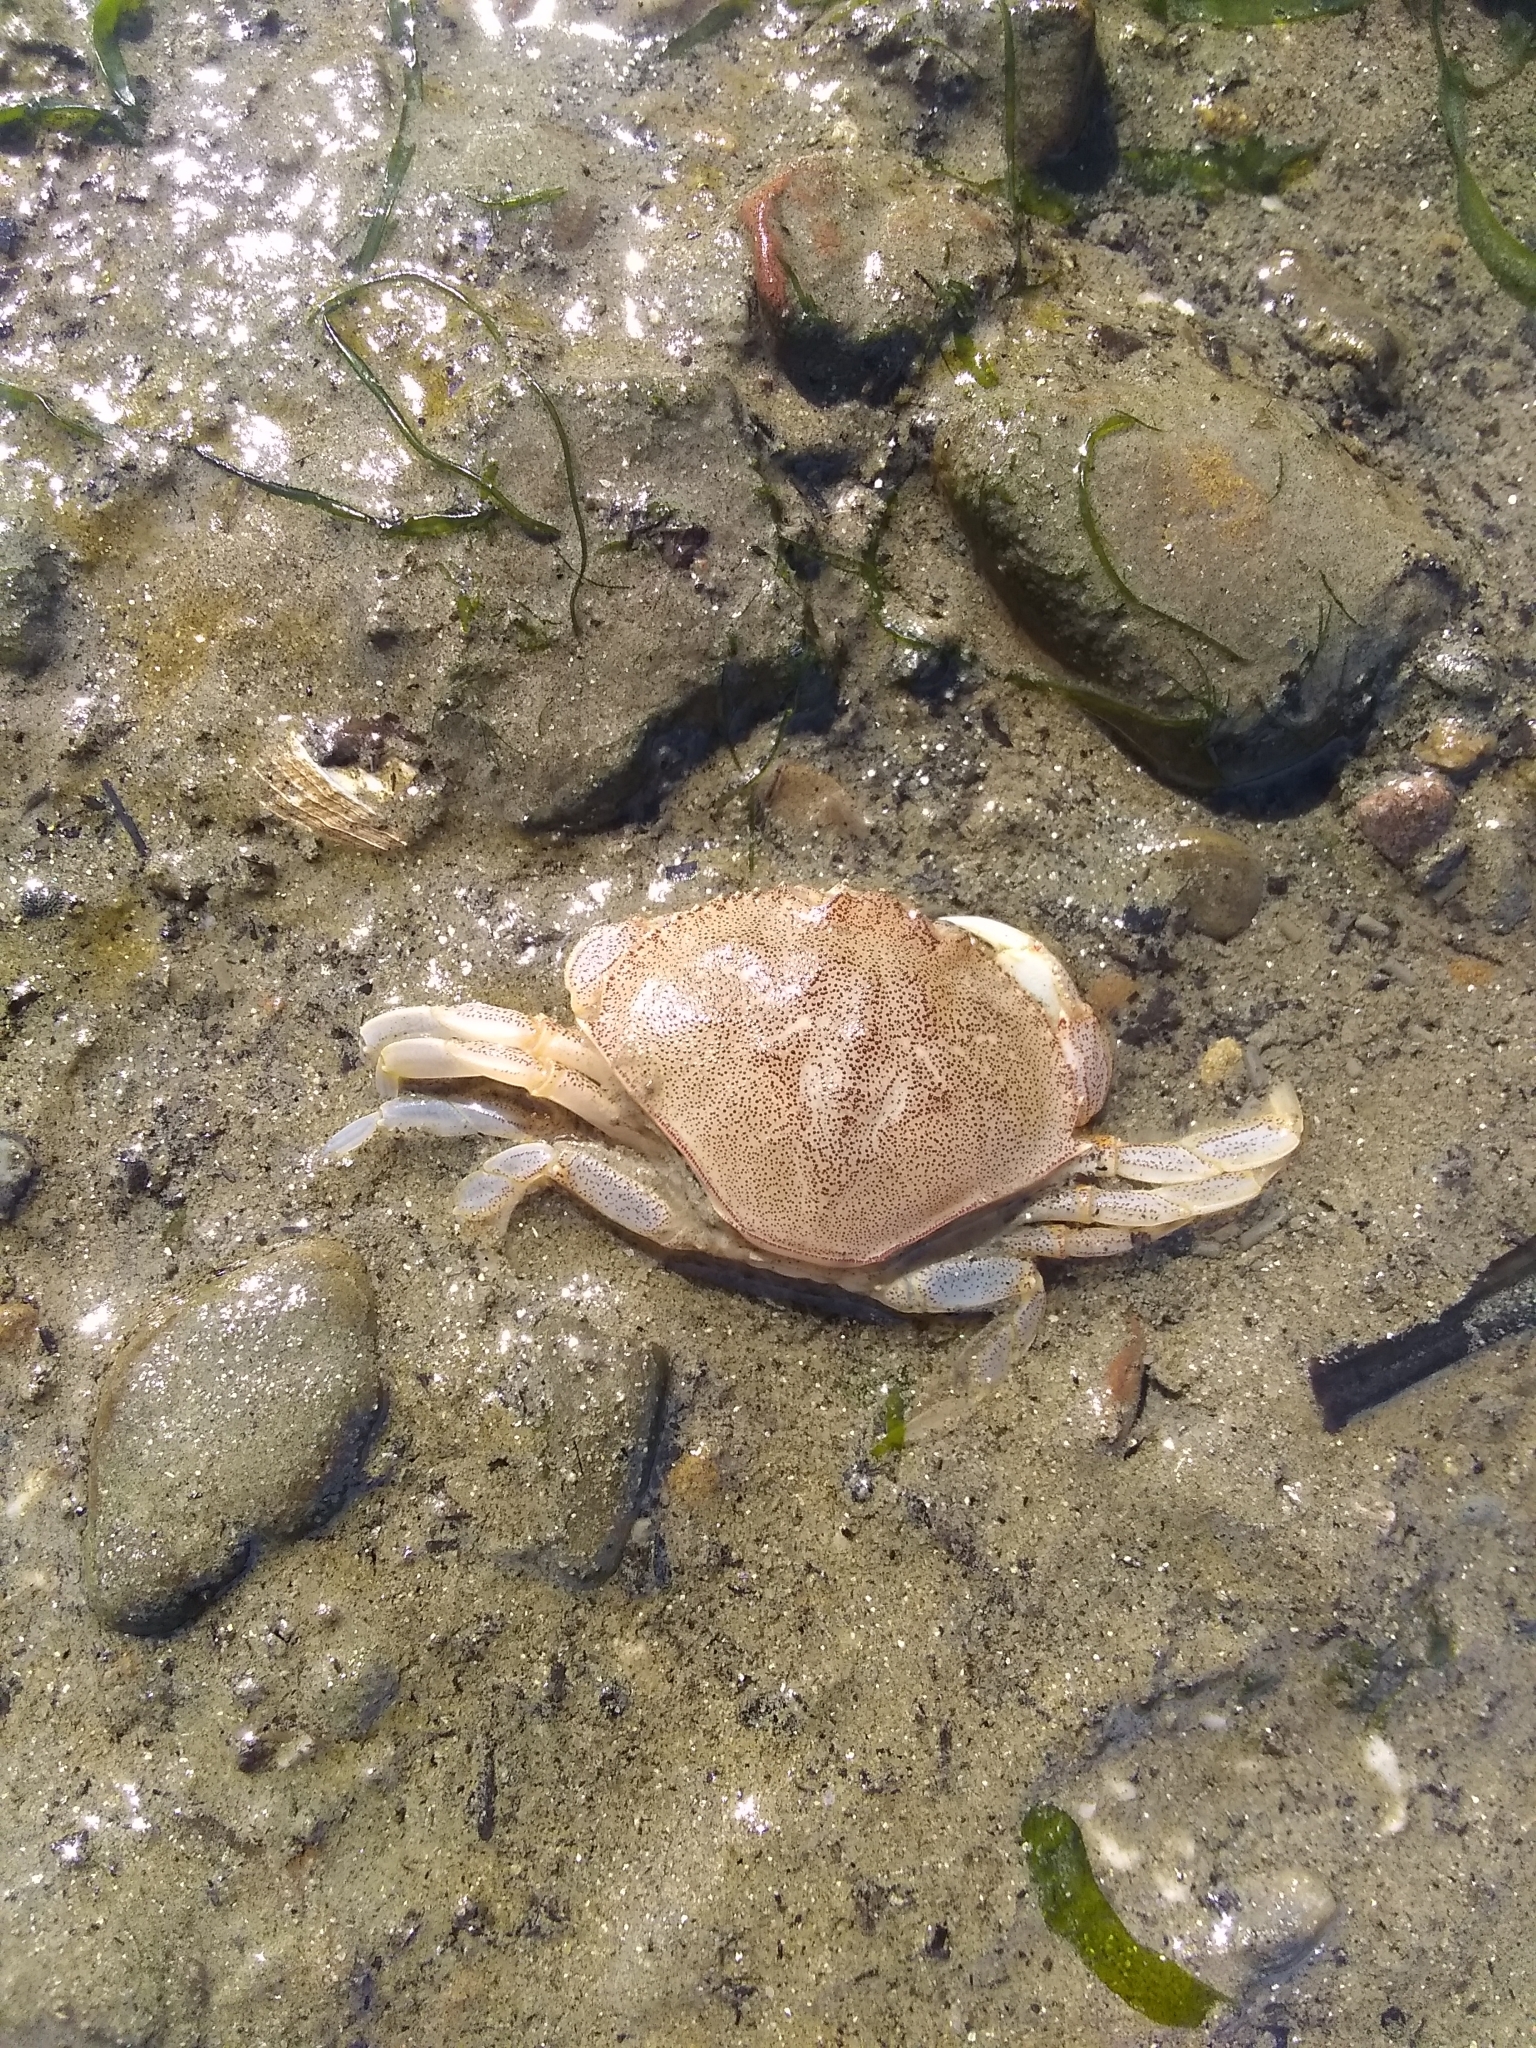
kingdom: Animalia
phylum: Arthropoda
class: Malacostraca
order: Decapoda
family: Cancridae
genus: Metacarcinus
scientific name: Metacarcinus magister
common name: Californian crab
